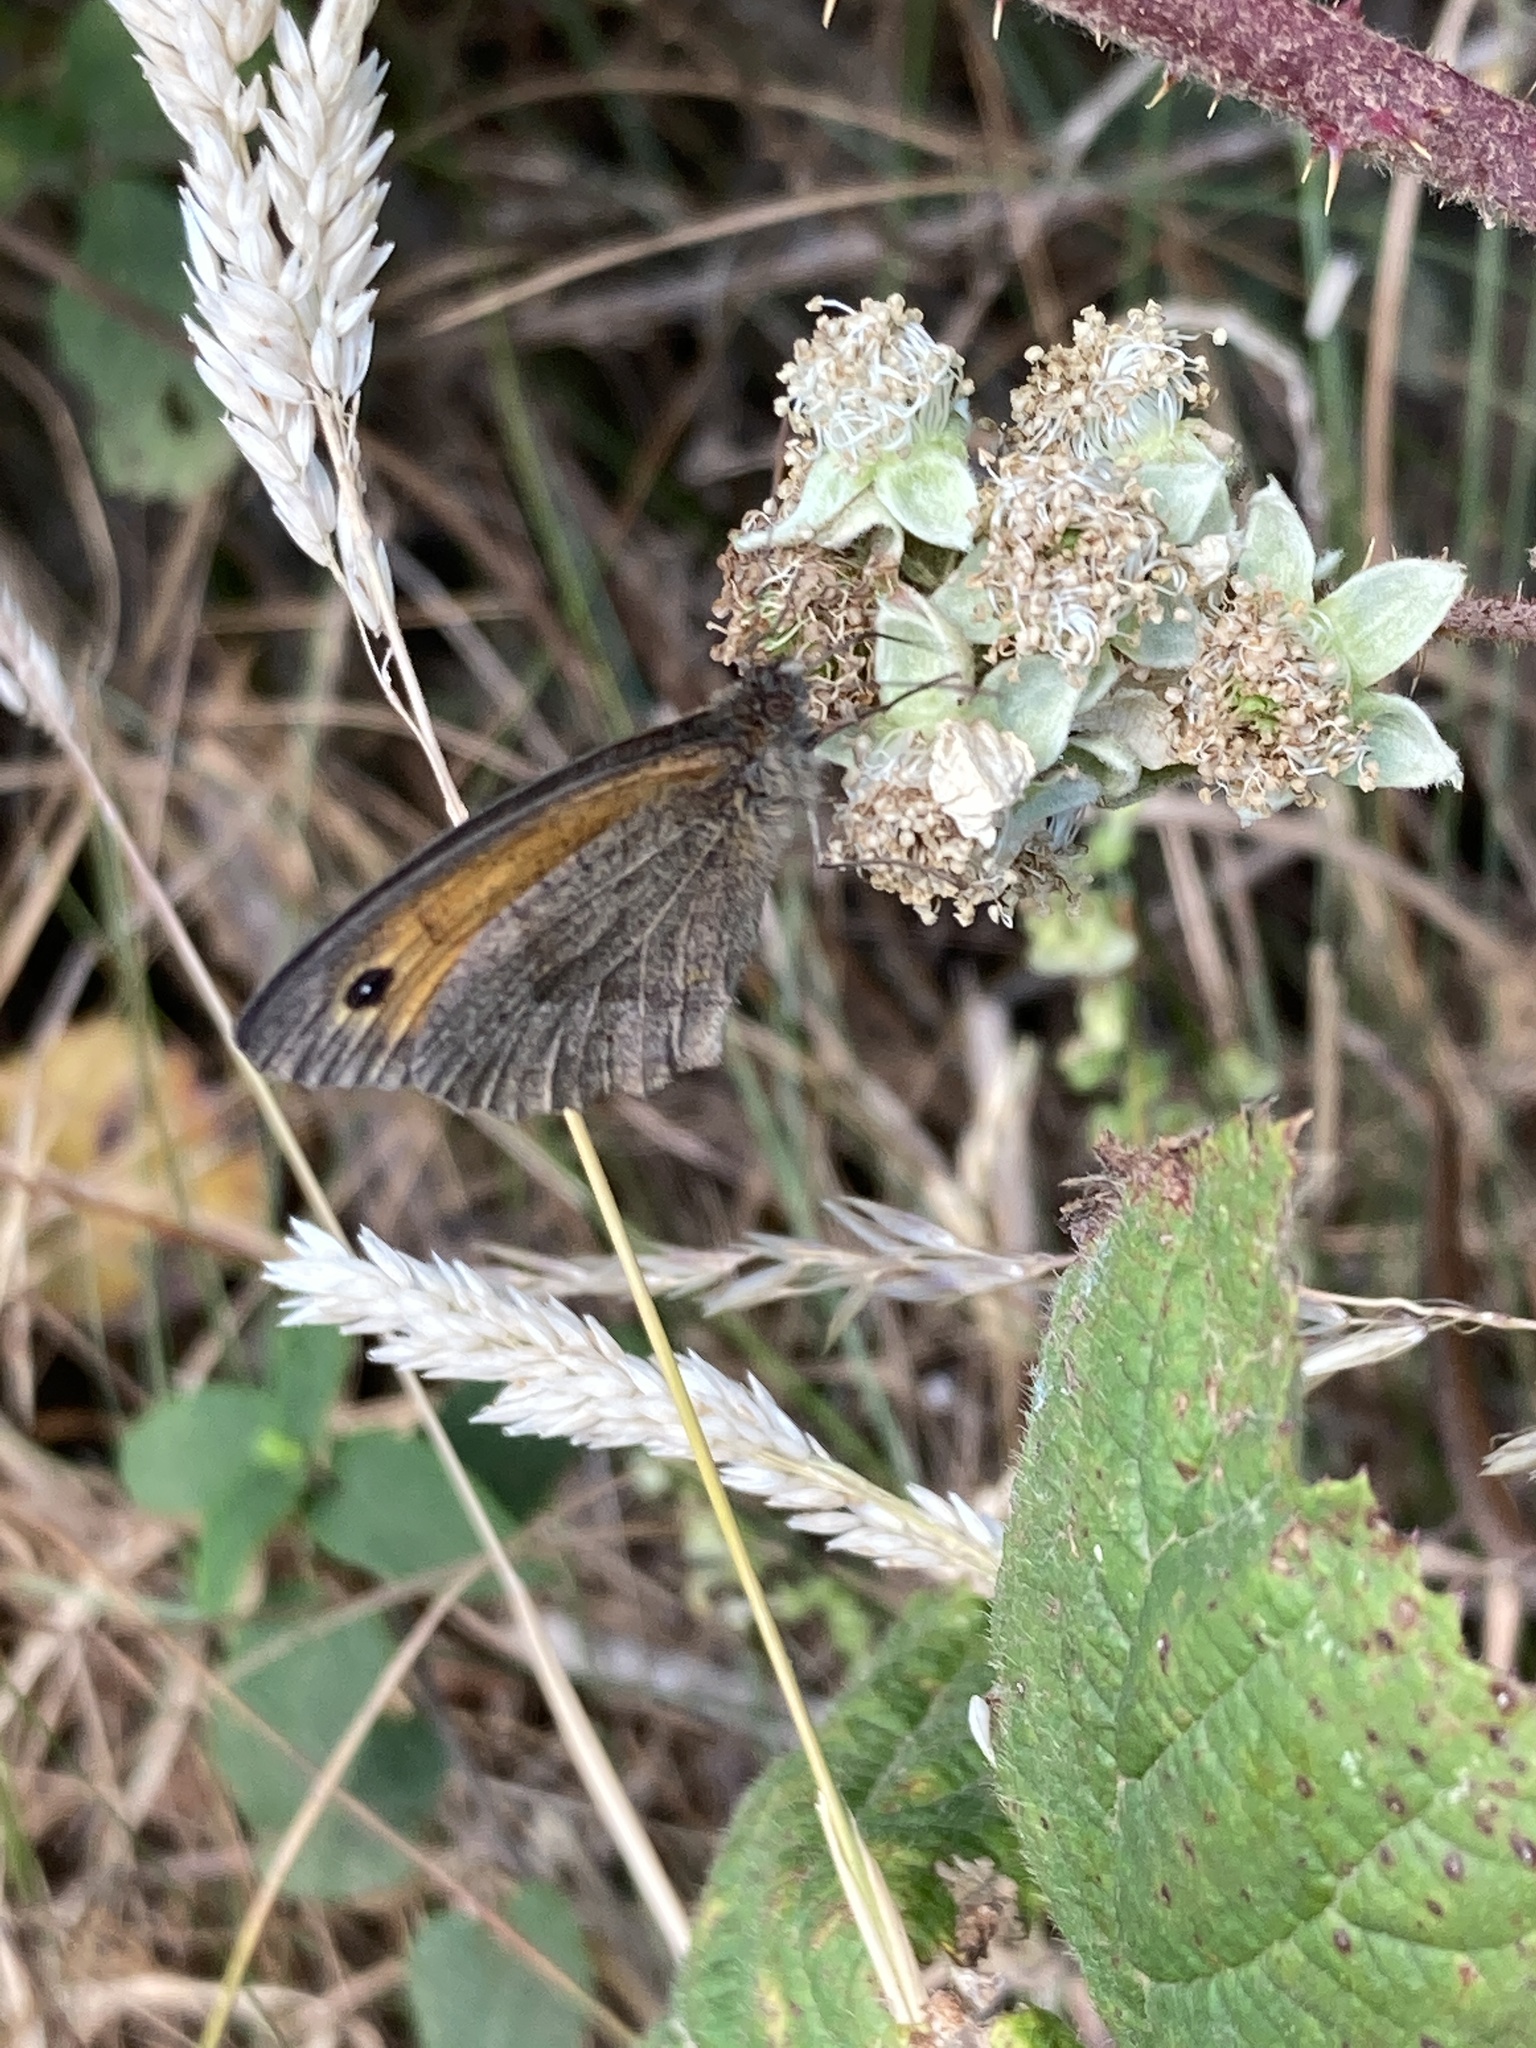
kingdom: Animalia
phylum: Arthropoda
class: Insecta
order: Lepidoptera
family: Nymphalidae
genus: Maniola
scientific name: Maniola jurtina
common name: Meadow brown
